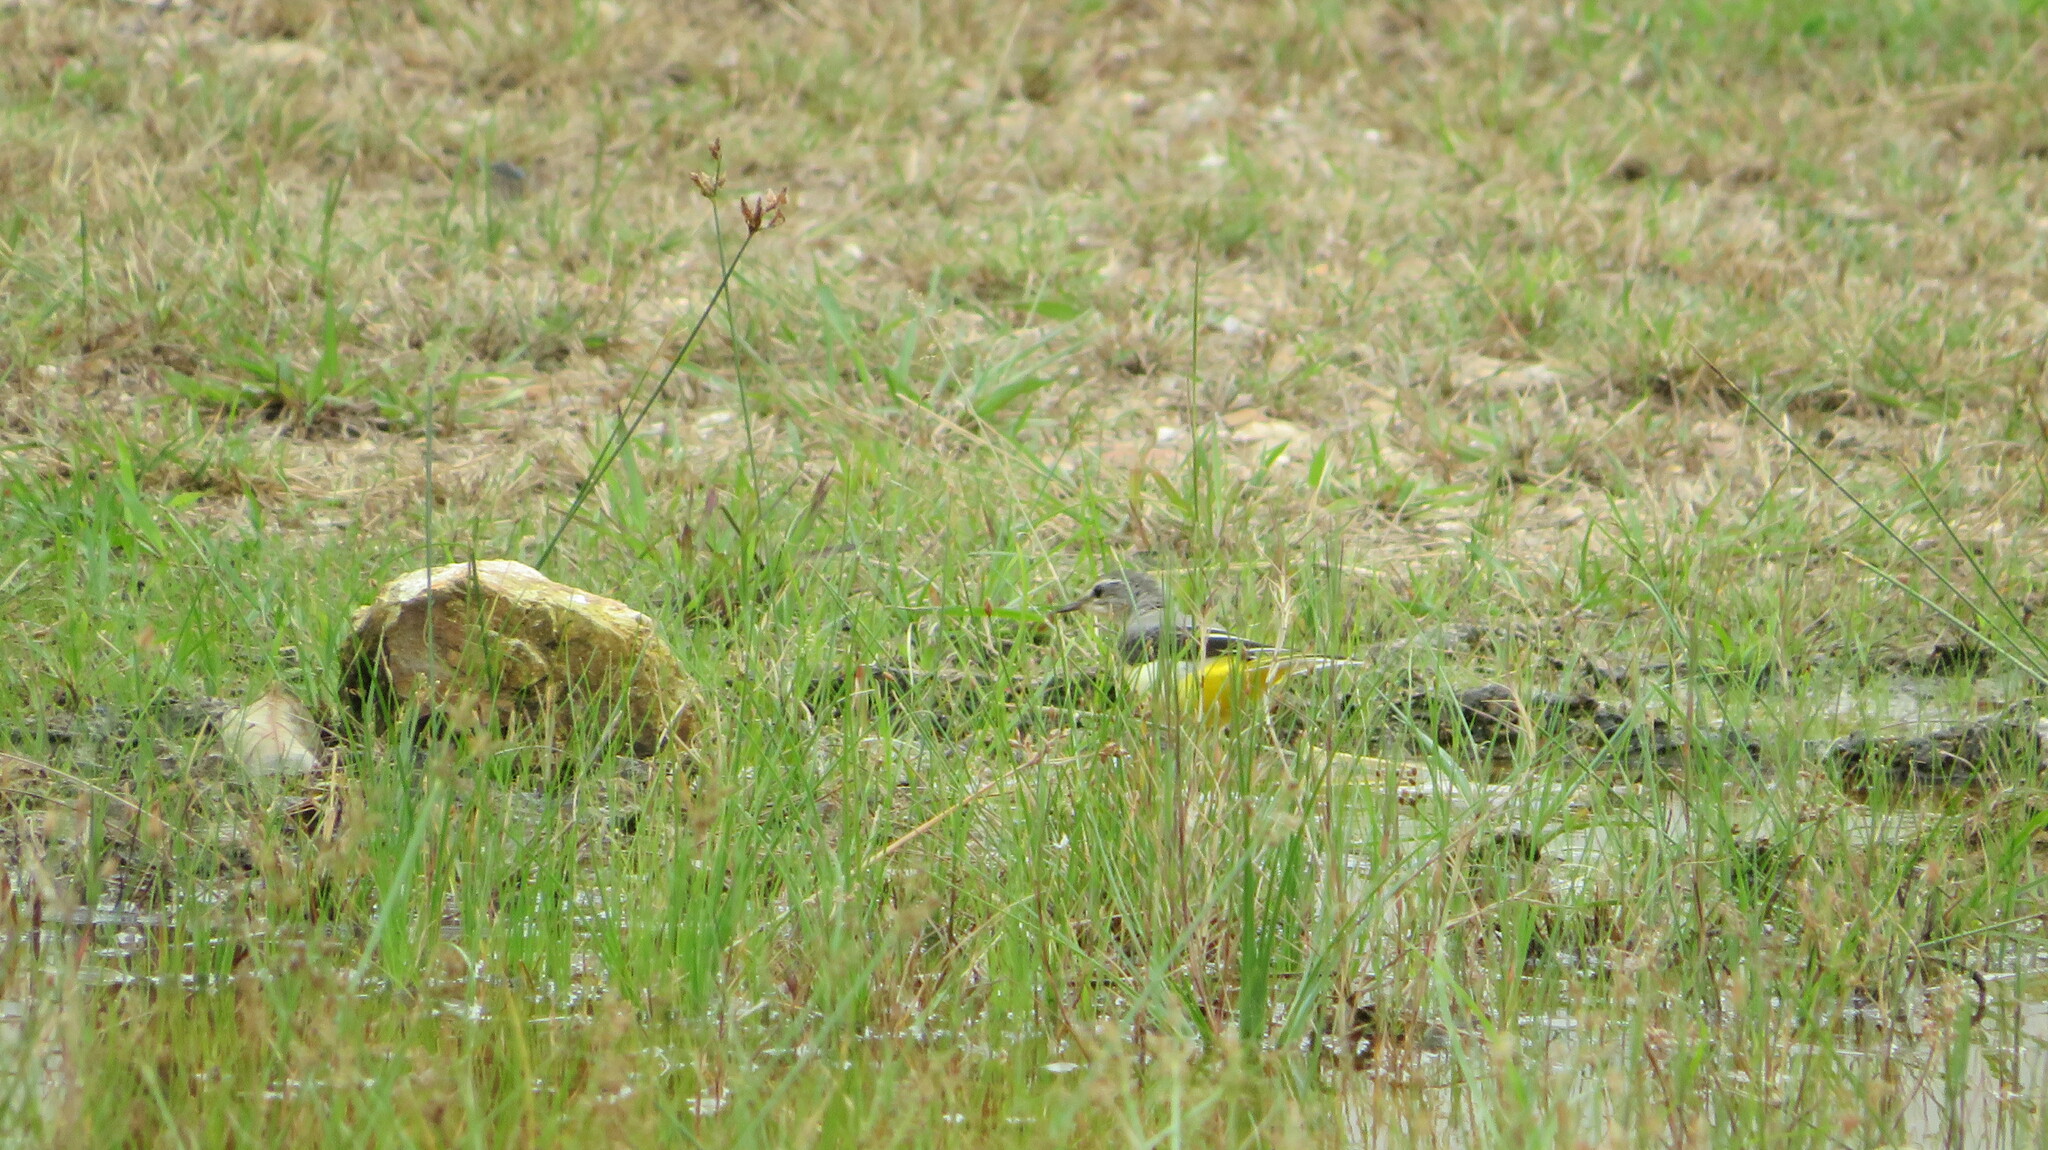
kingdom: Animalia
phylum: Chordata
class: Aves
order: Passeriformes
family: Motacillidae
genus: Motacilla
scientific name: Motacilla cinerea
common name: Grey wagtail
